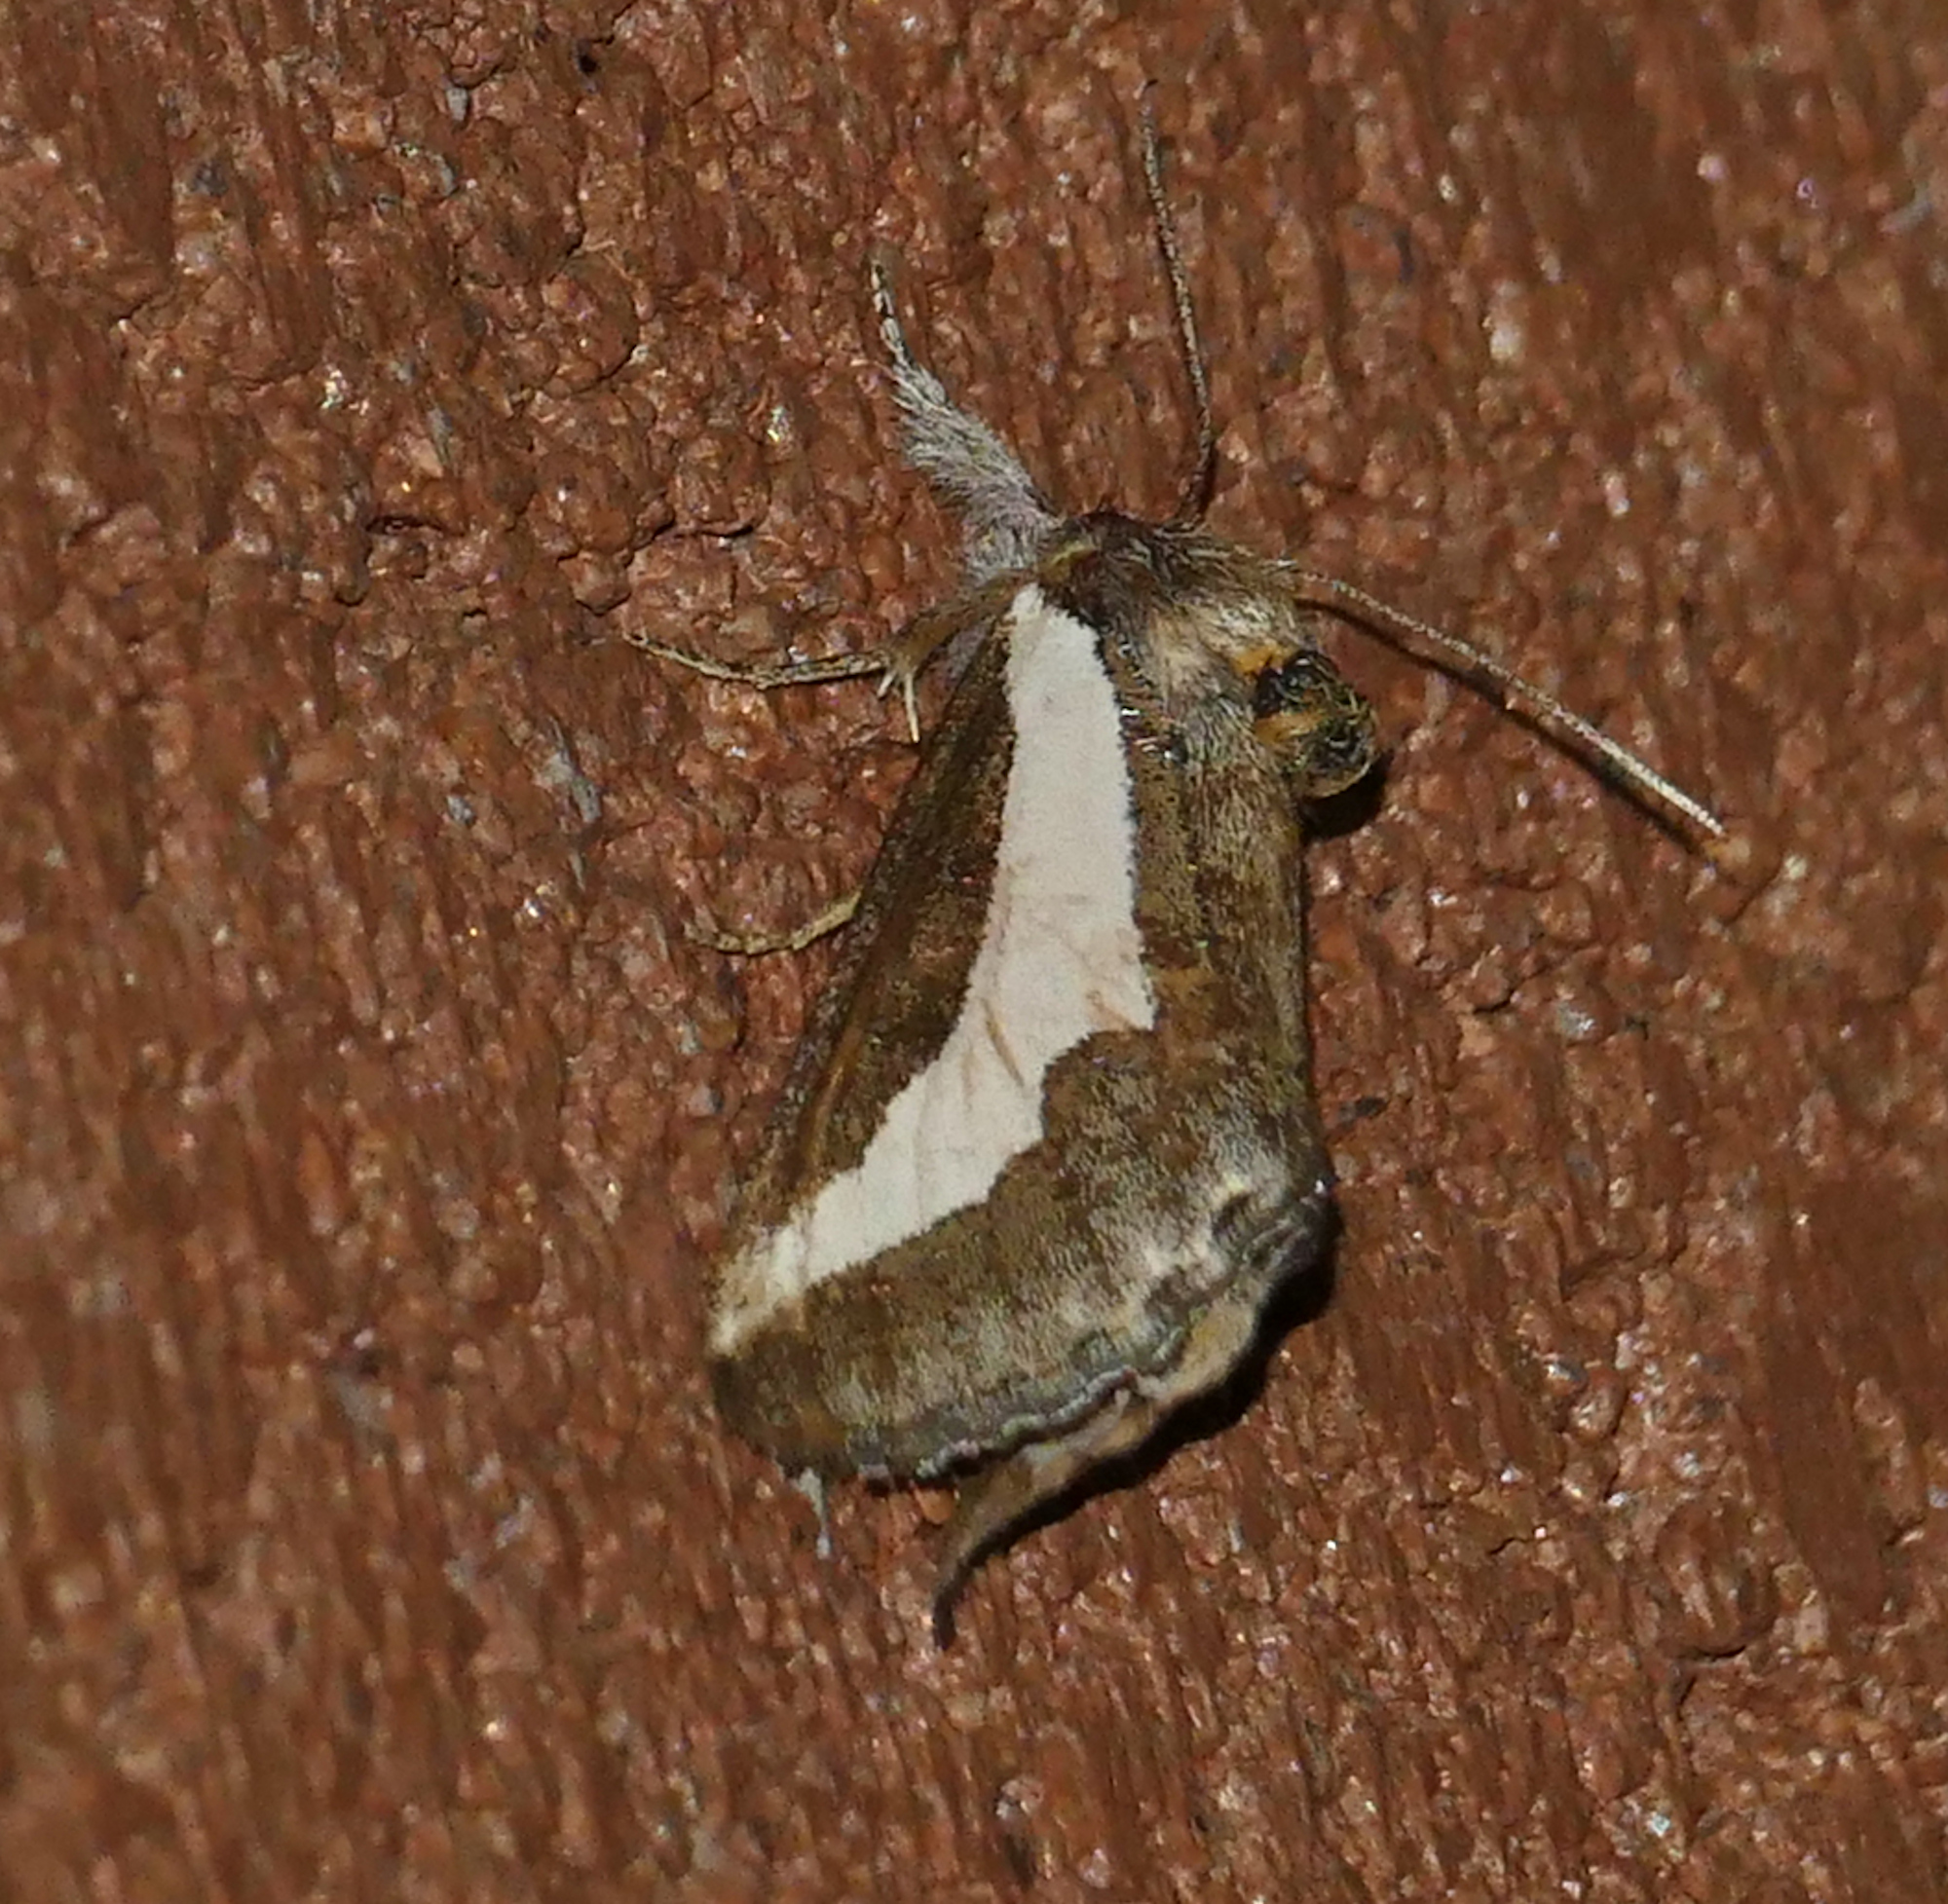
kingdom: Animalia
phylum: Arthropoda
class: Insecta
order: Lepidoptera
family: Noctuidae
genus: Euscirrhopterus
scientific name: Euscirrhopterus cosyra
